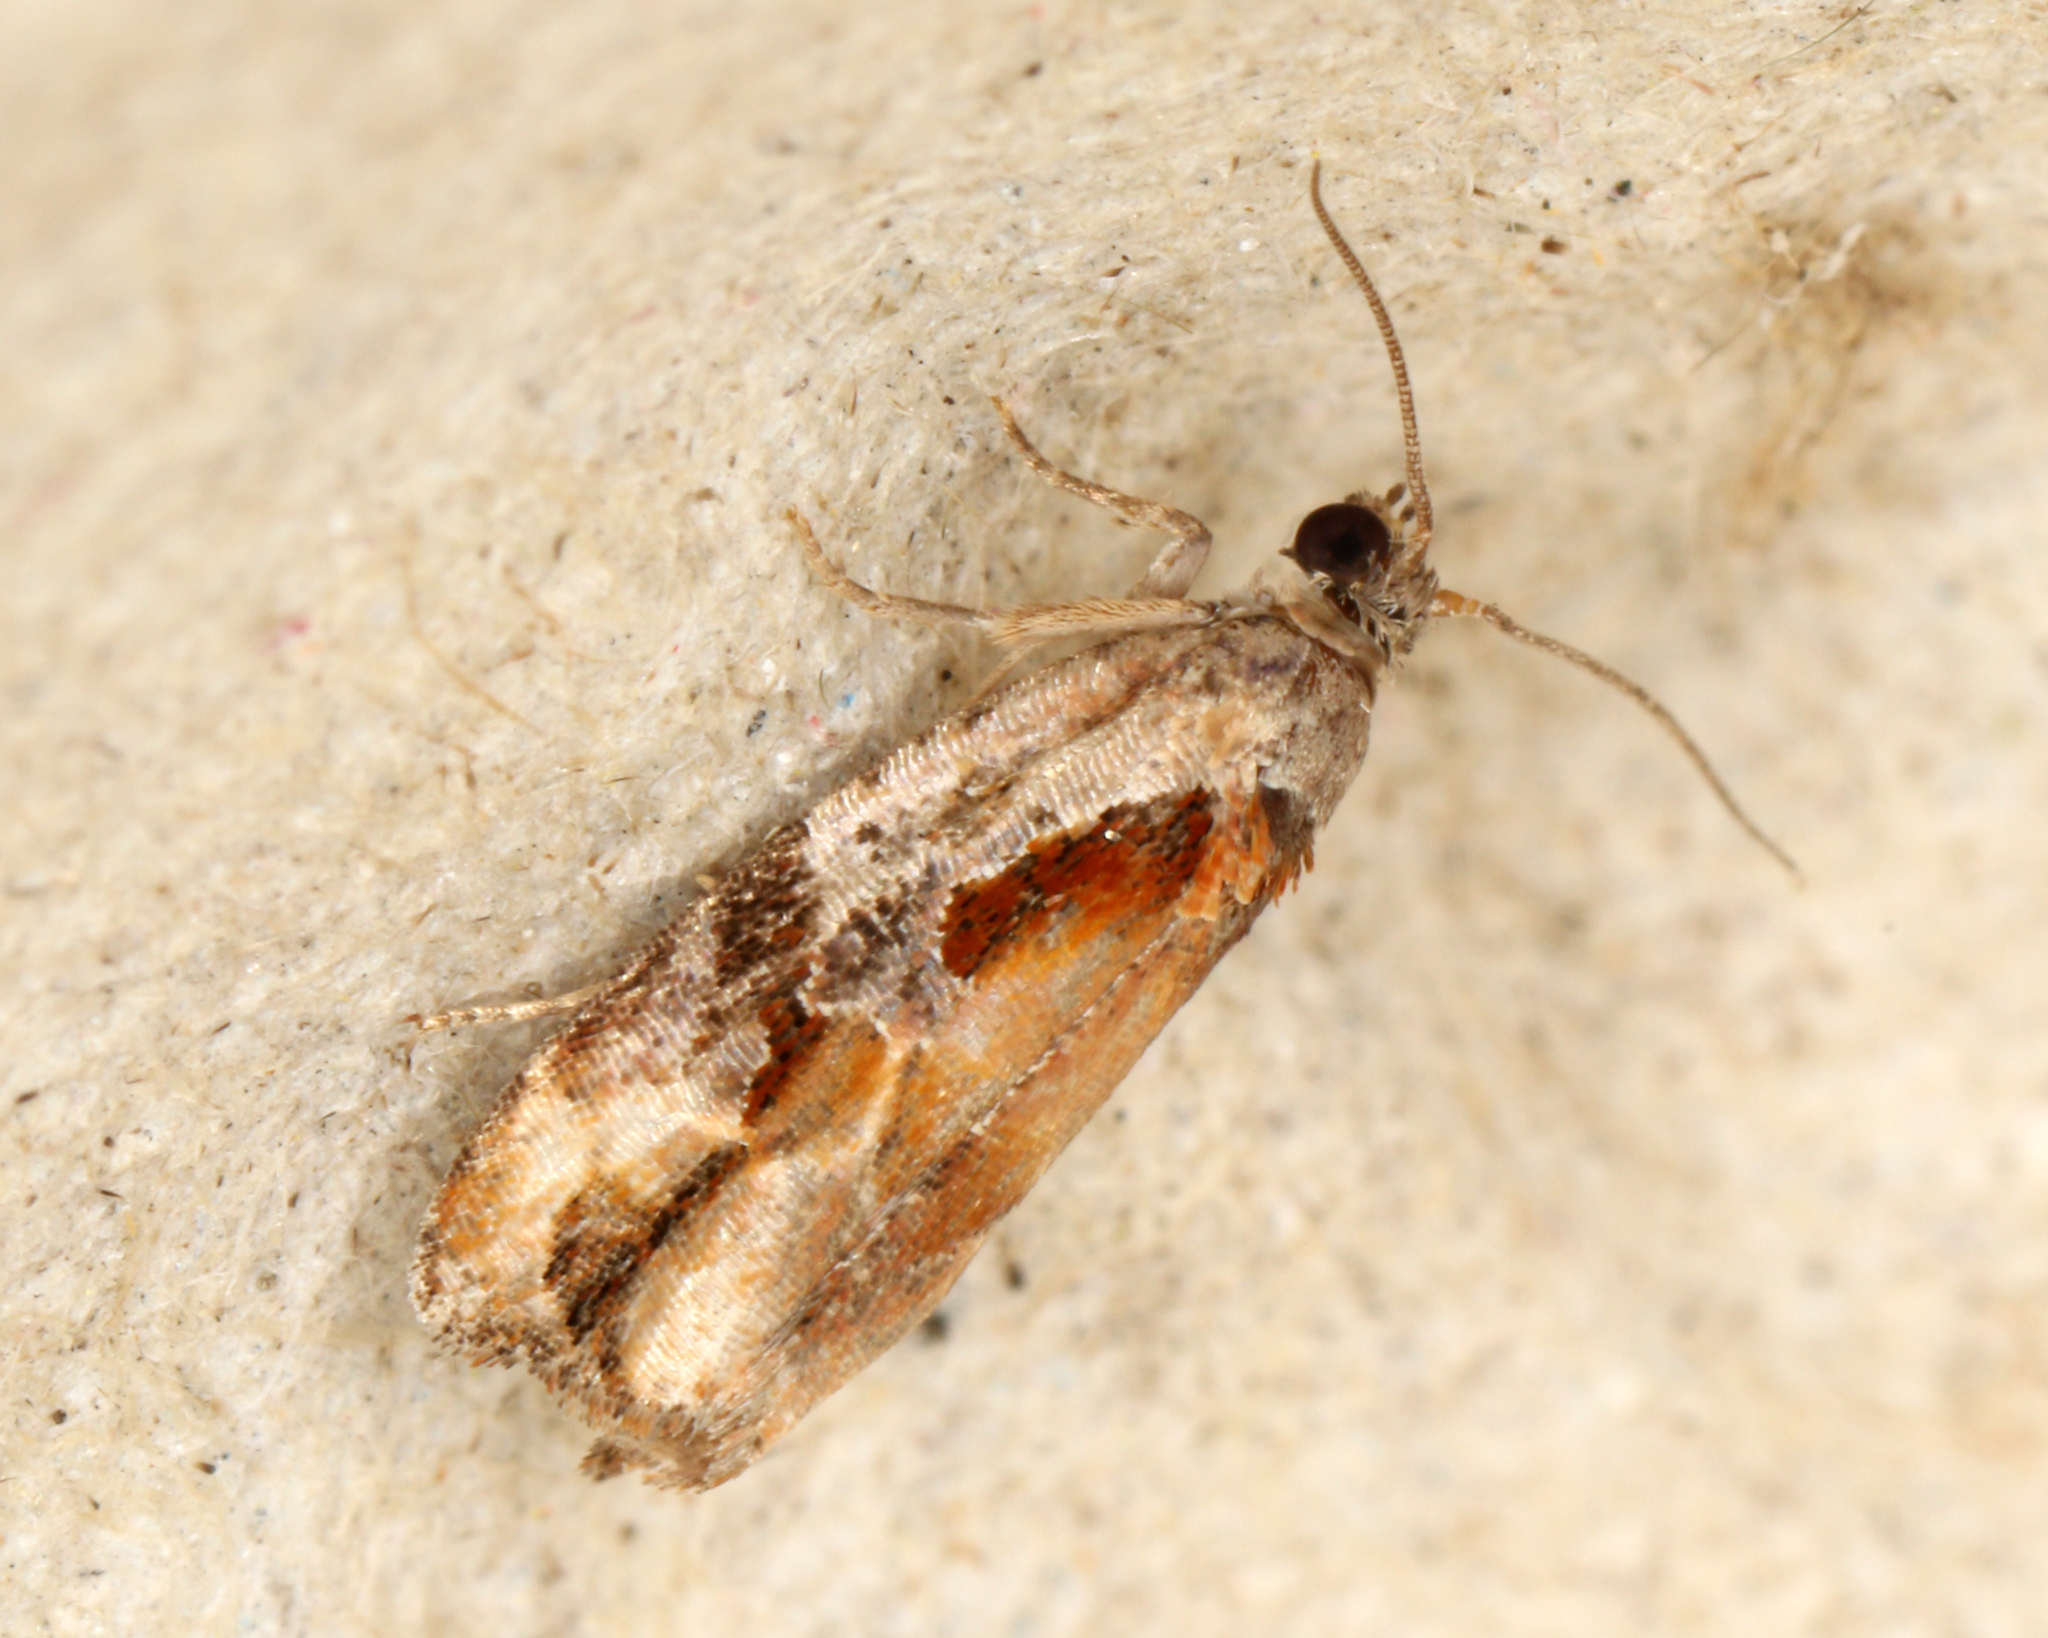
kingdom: Animalia
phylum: Arthropoda
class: Insecta
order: Lepidoptera
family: Tortricidae
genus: Zomaria
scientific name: Zomaria interruptolineana
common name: Broken-lined zomaria moth
